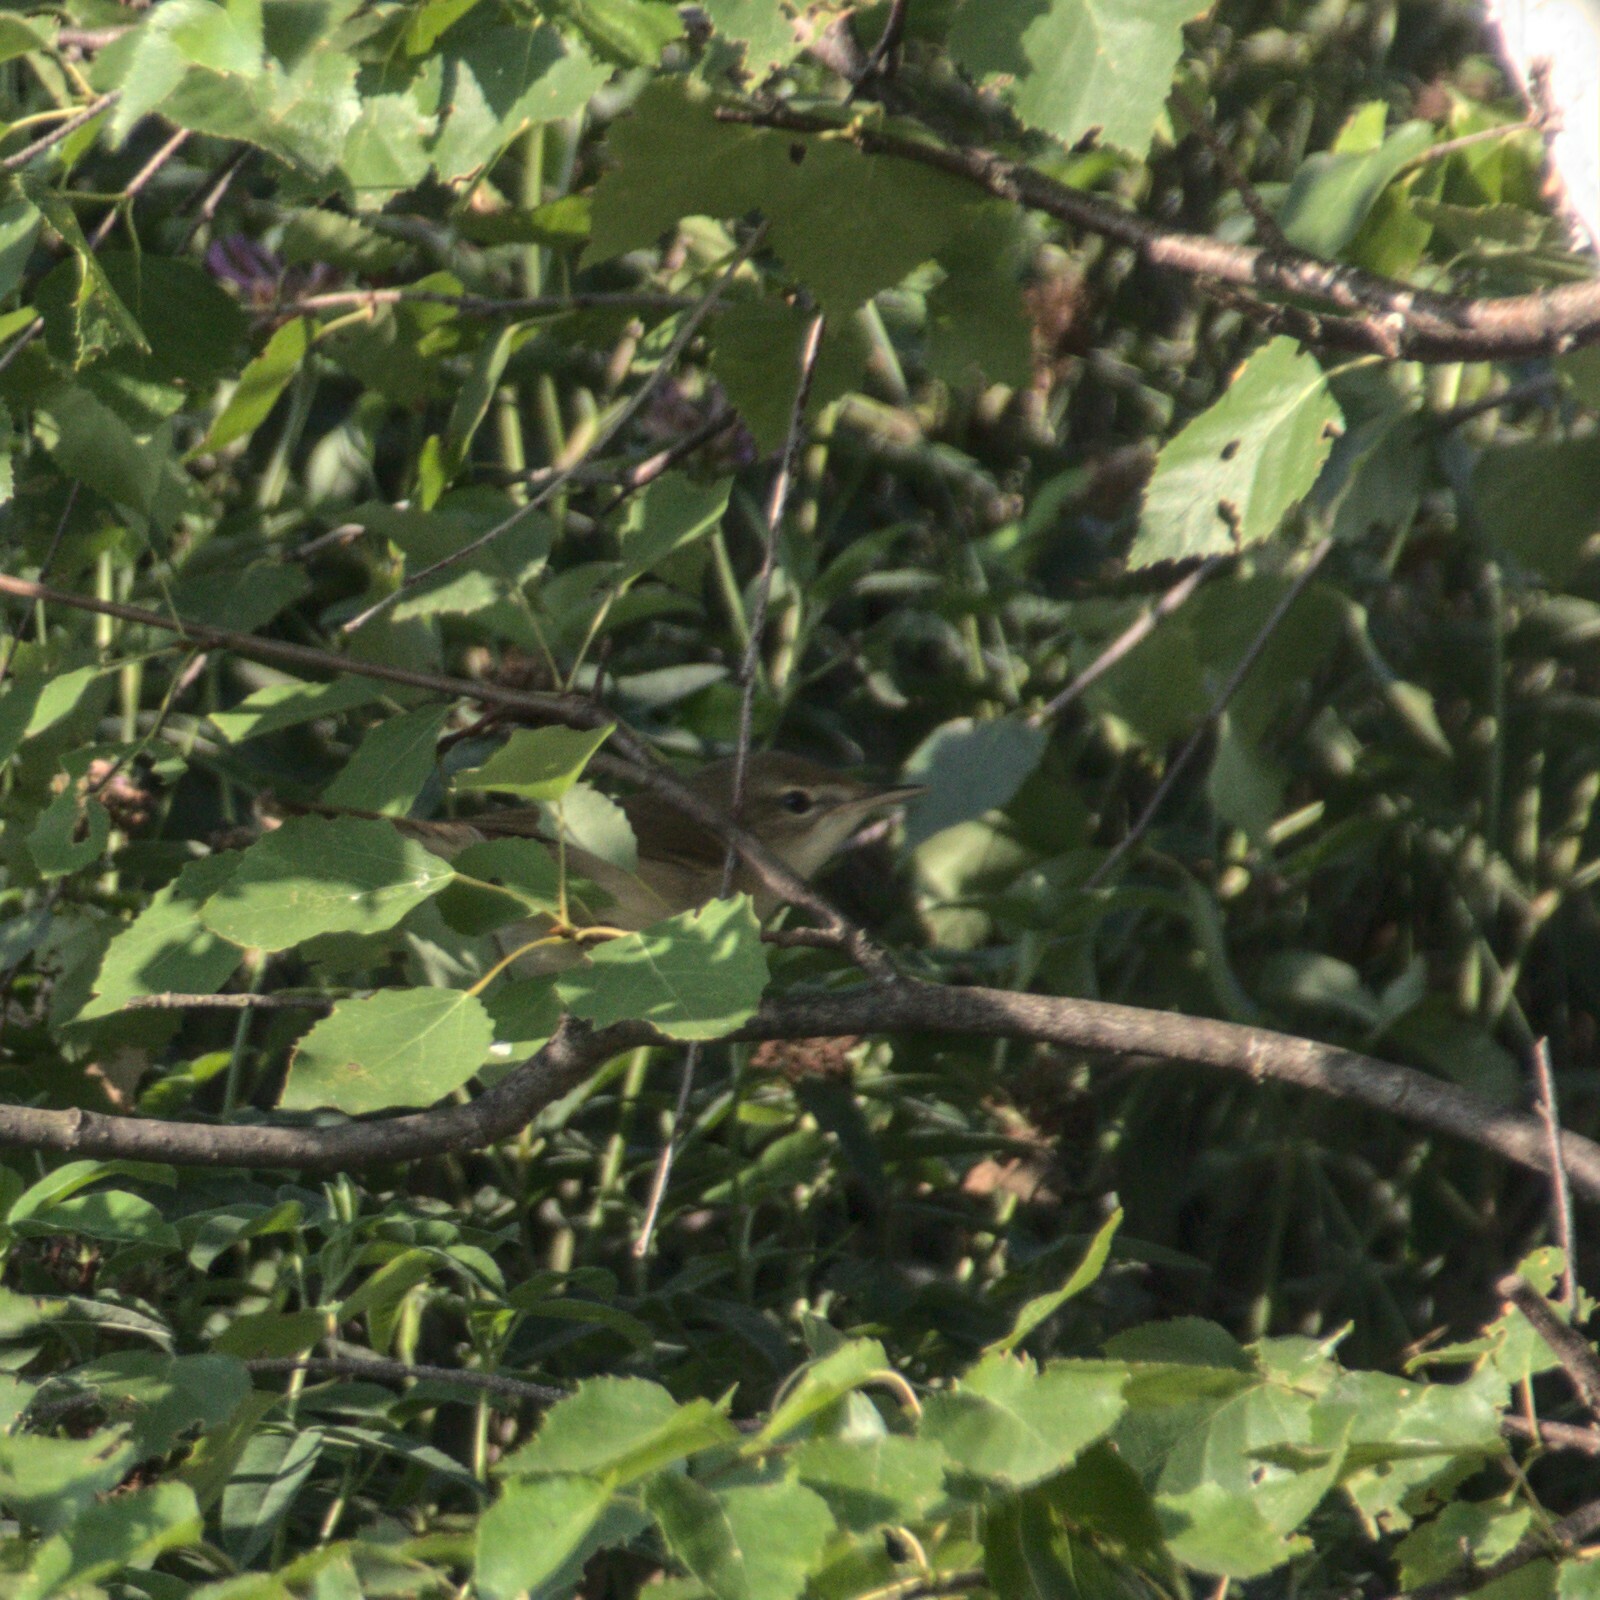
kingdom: Animalia
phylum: Chordata
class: Aves
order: Passeriformes
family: Acrocephalidae
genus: Acrocephalus
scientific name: Acrocephalus dumetorum
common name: Blyth's reed warbler
